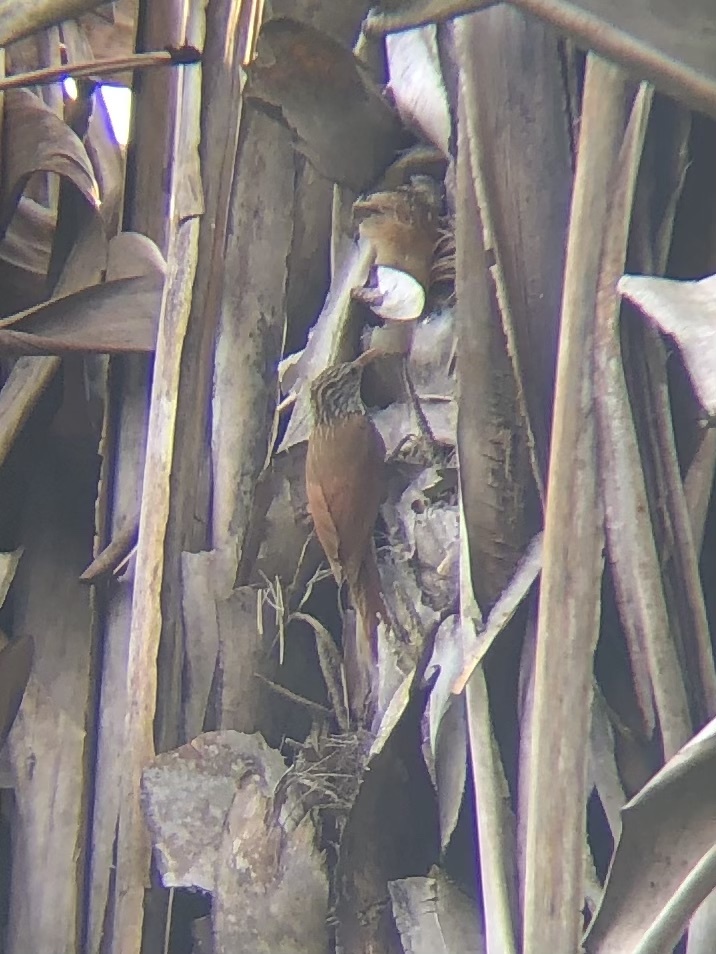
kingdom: Animalia
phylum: Chordata
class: Aves
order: Passeriformes
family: Furnariidae
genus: Lepidocolaptes
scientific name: Lepidocolaptes souleyetii
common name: Streak-headed woodcreeper
